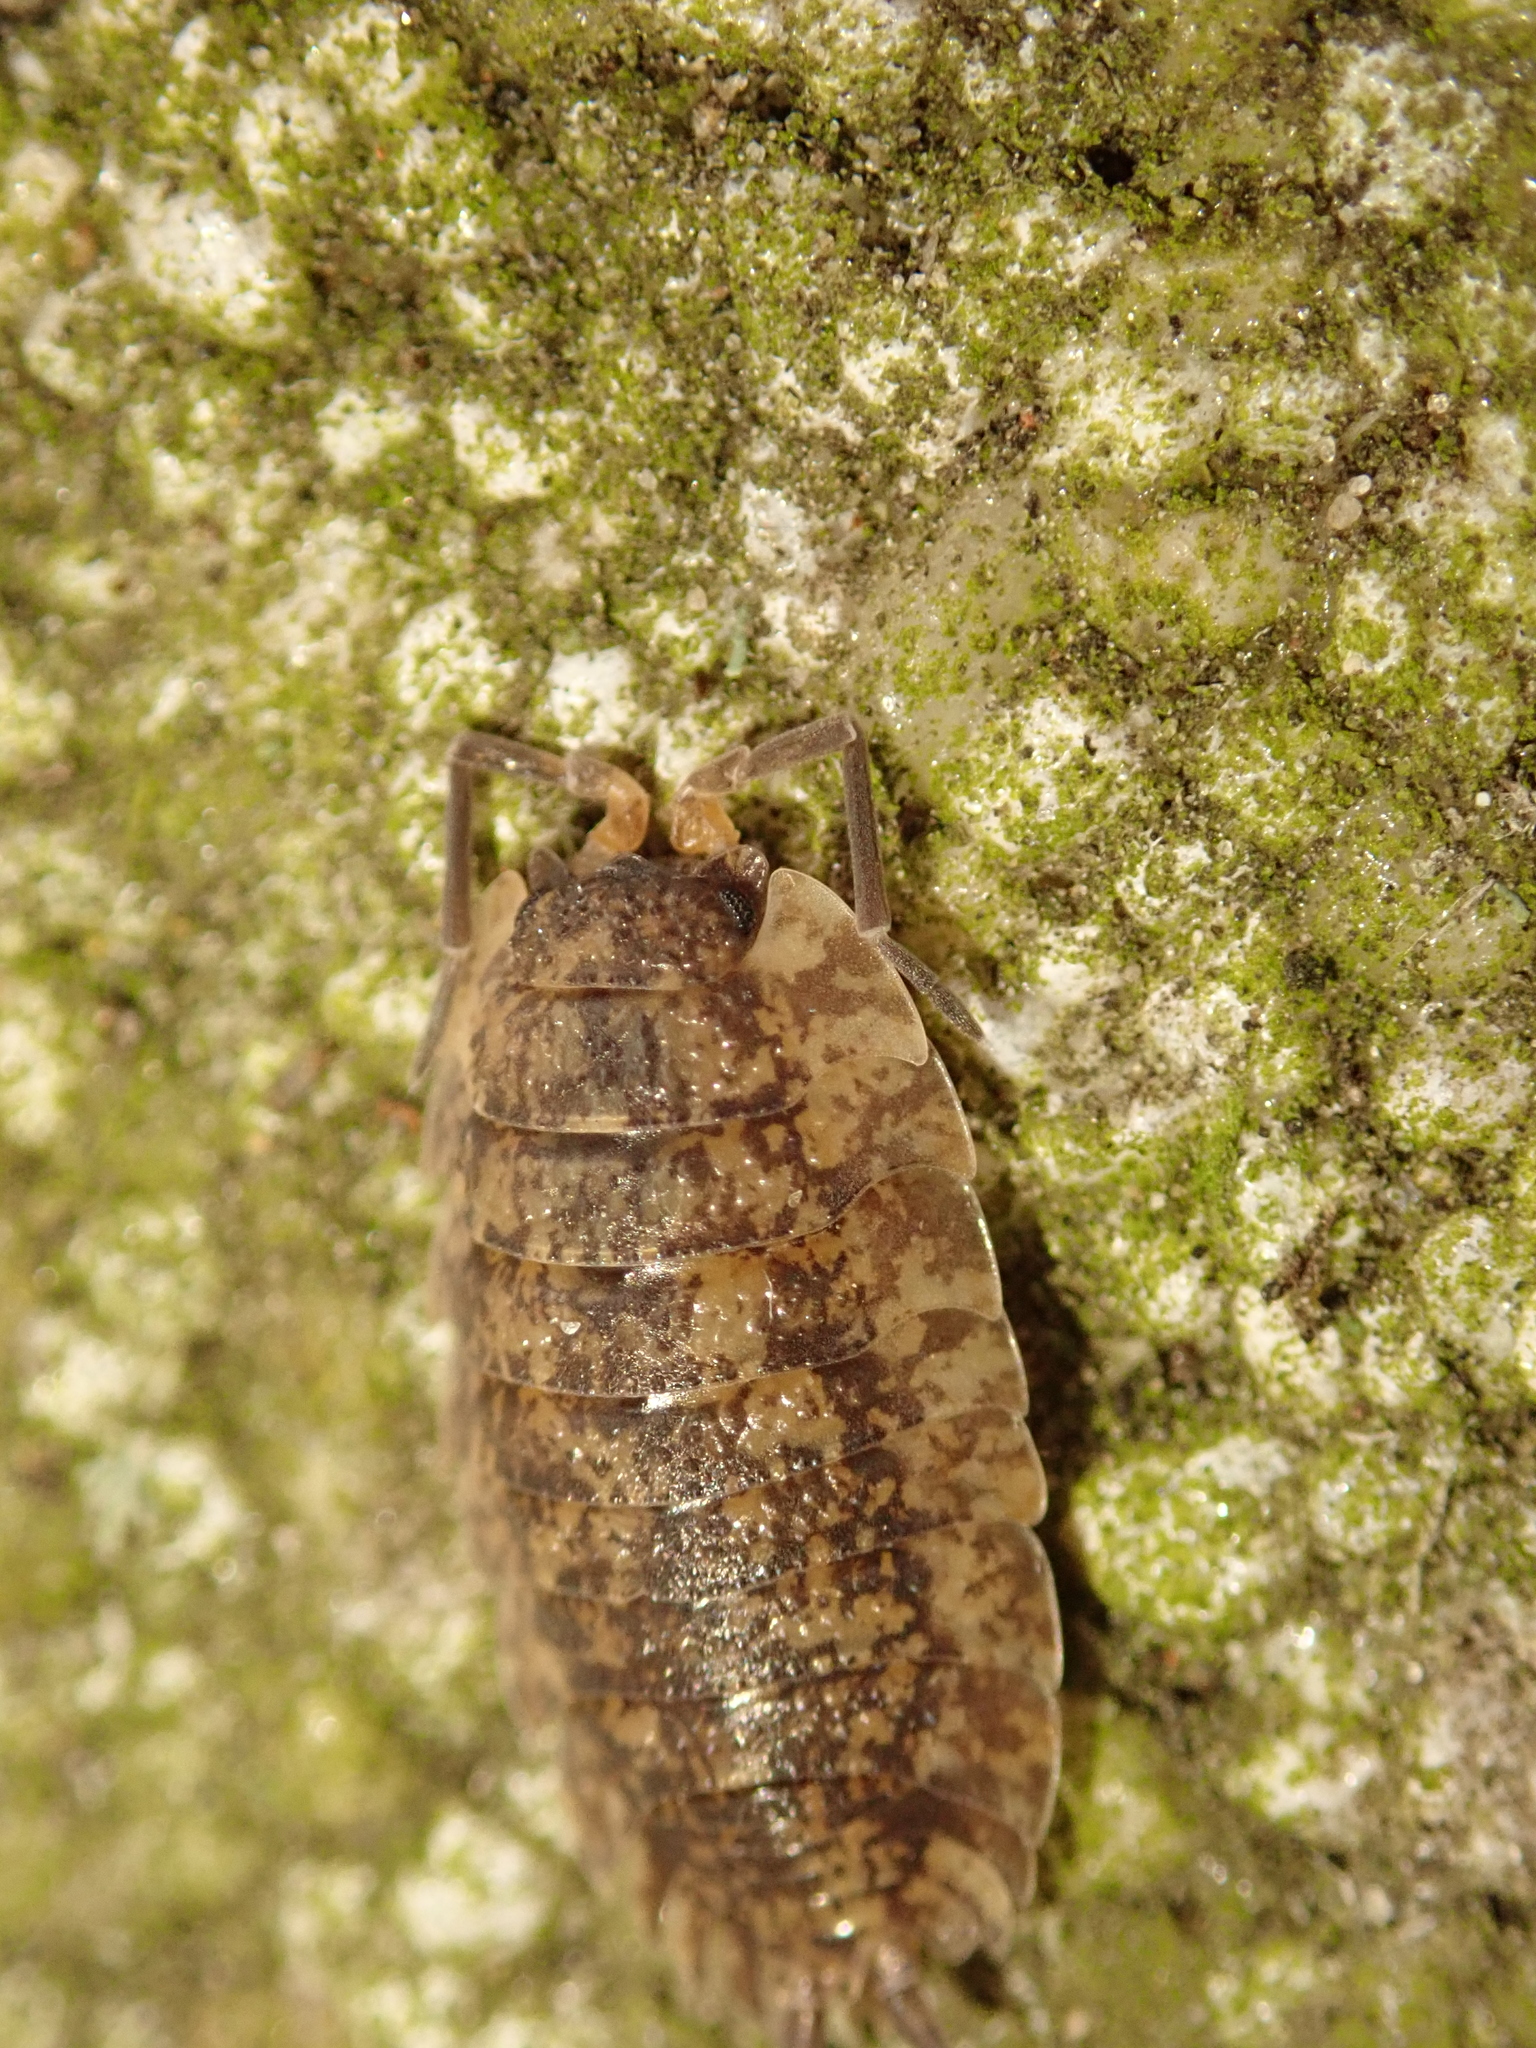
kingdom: Animalia
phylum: Arthropoda
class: Malacostraca
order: Isopoda
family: Porcellionidae
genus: Porcellio
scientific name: Porcellio scaber
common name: Common rough woodlouse
